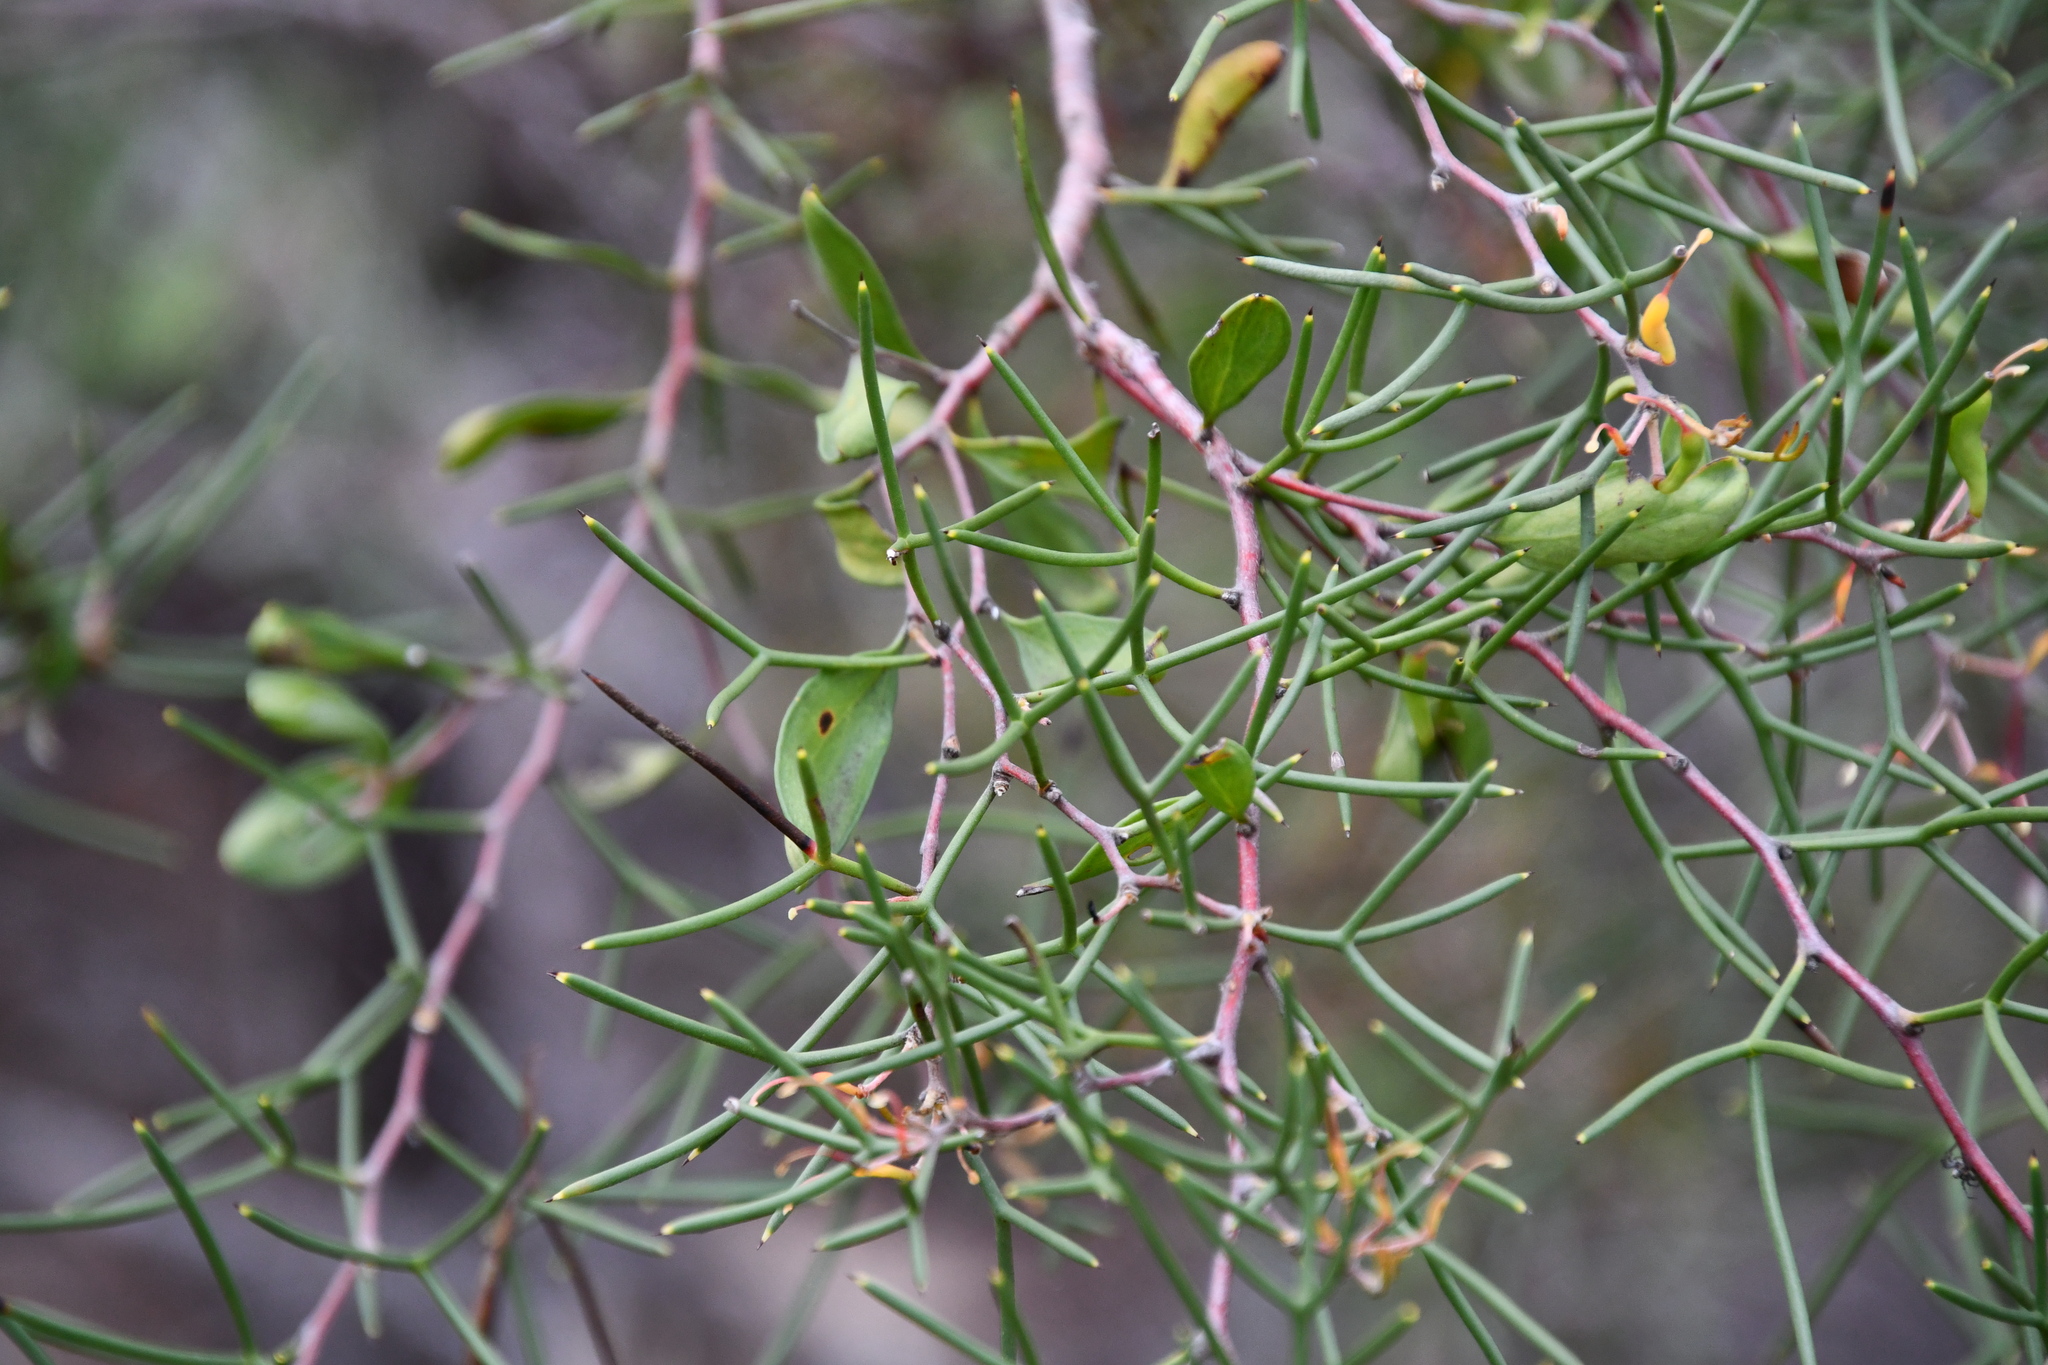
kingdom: Plantae
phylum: Tracheophyta
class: Magnoliopsida
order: Proteales
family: Proteaceae
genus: Hakea
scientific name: Hakea trifurcata
